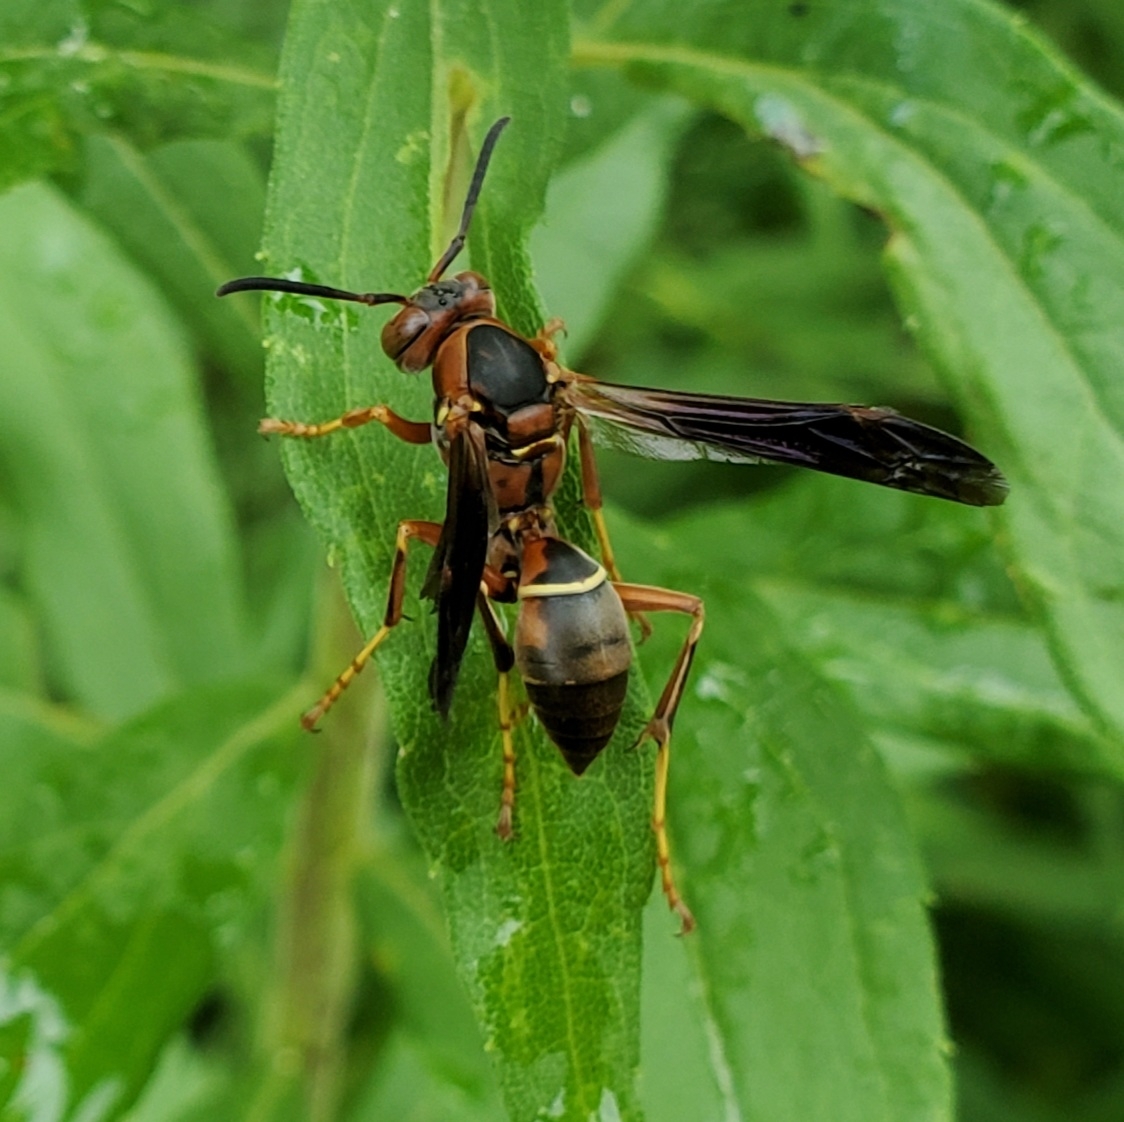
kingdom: Animalia
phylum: Arthropoda
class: Insecta
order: Hymenoptera
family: Eumenidae
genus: Polistes
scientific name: Polistes fuscatus
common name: Dark paper wasp
